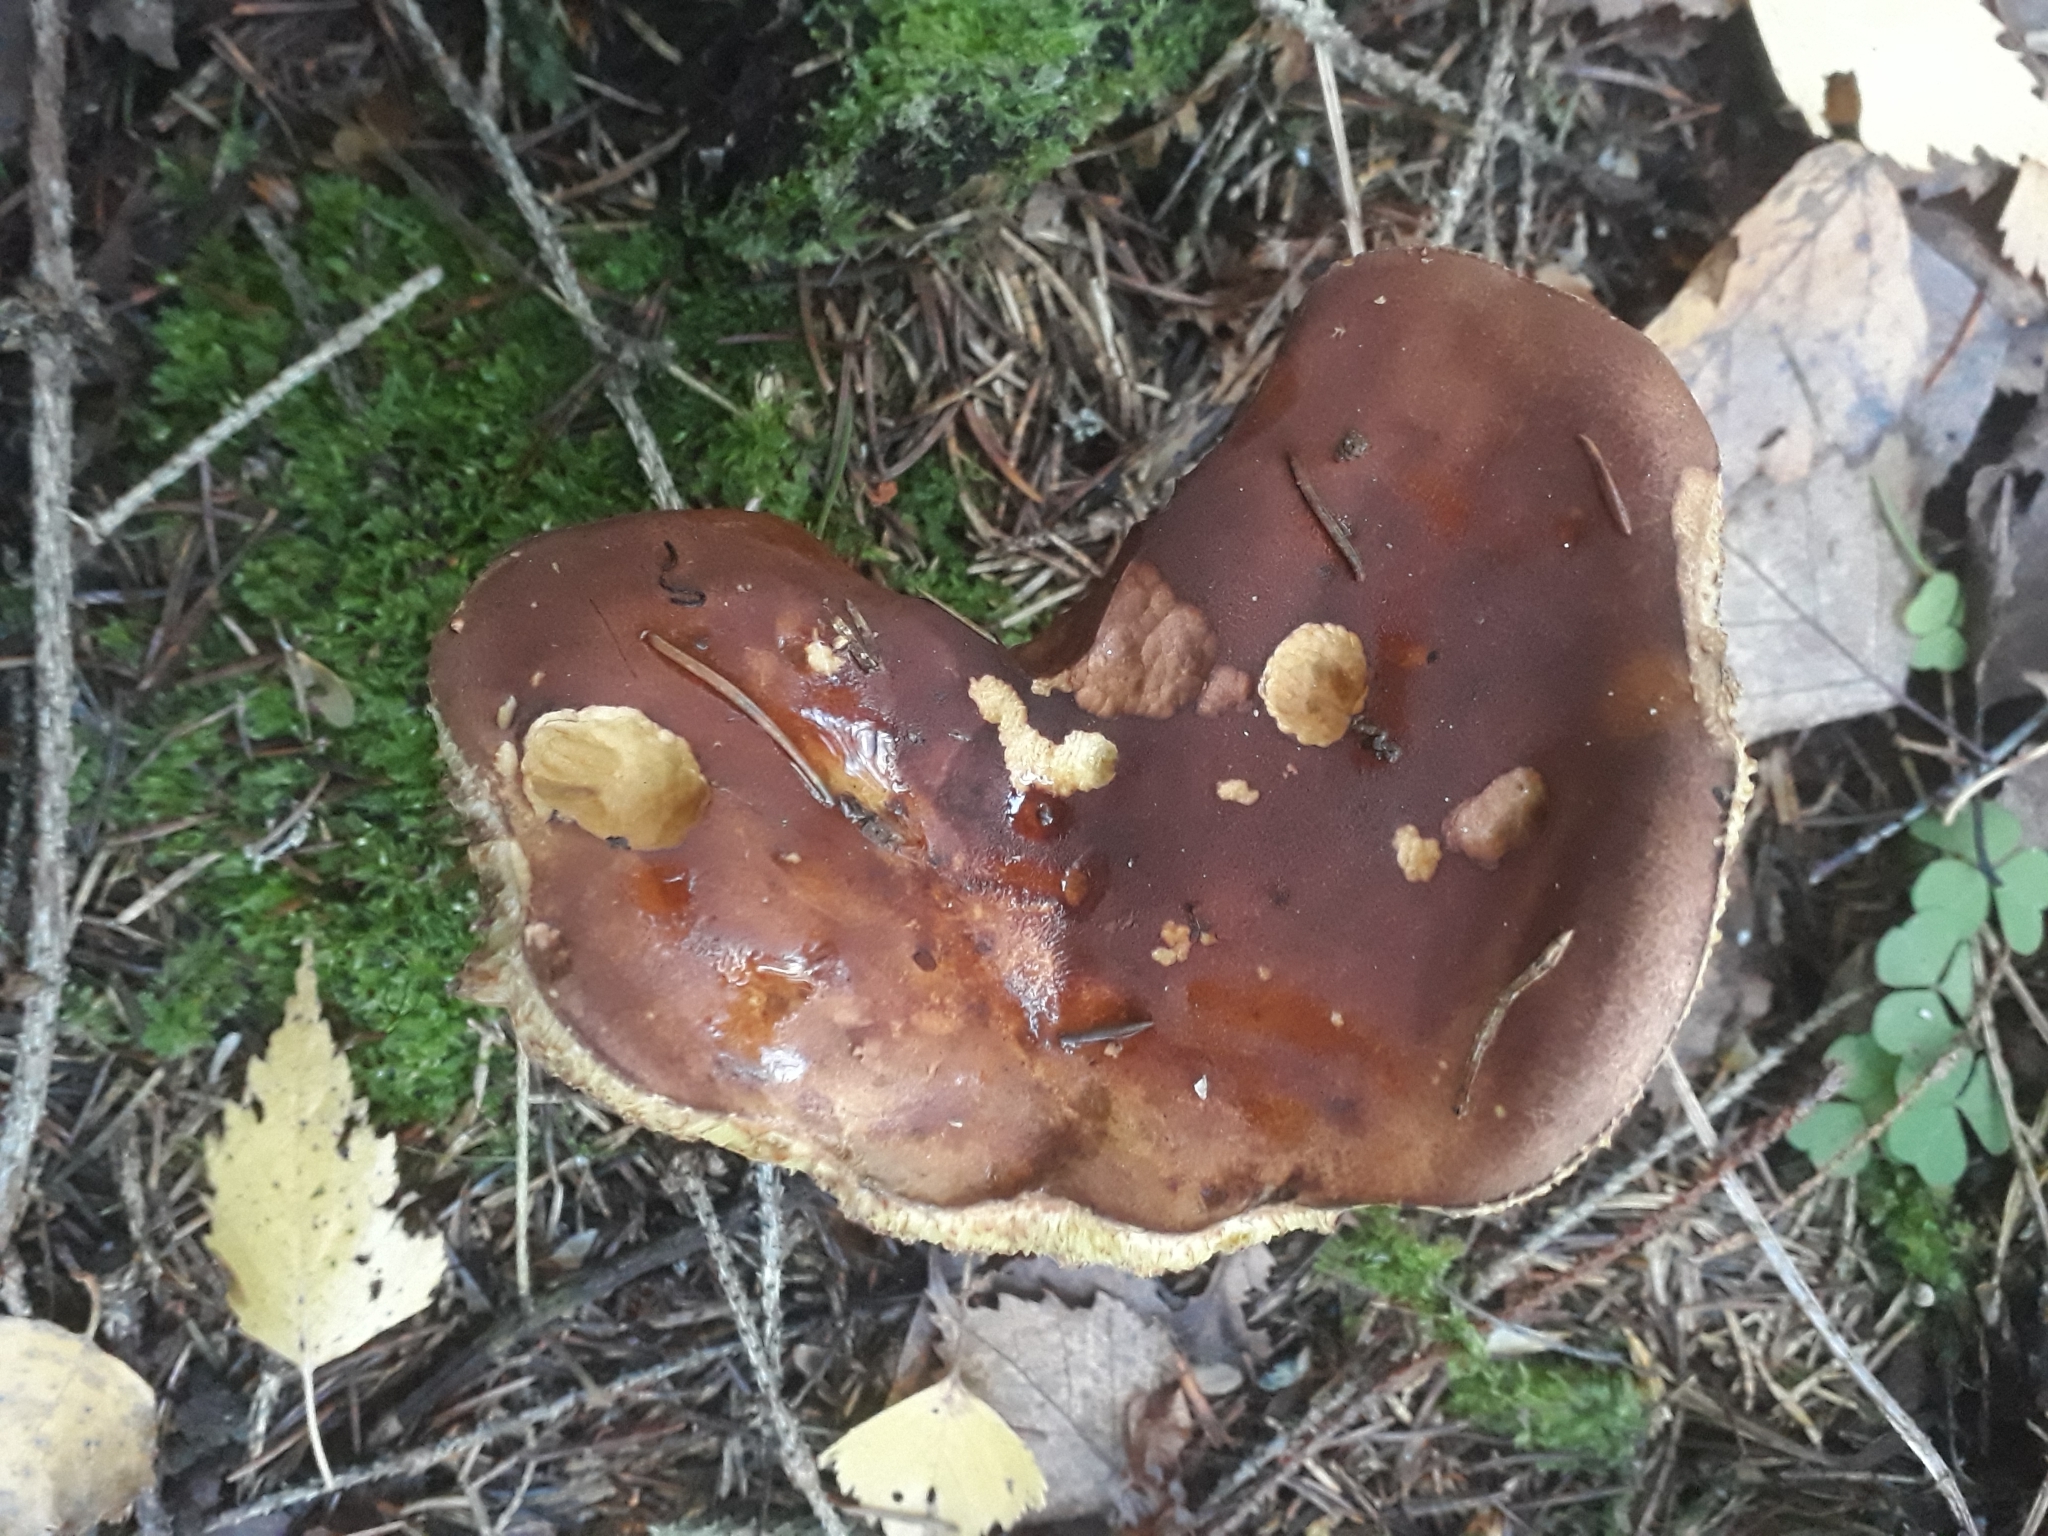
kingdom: Fungi
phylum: Basidiomycota
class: Agaricomycetes
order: Boletales
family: Boletaceae
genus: Imleria
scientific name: Imleria badia
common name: Bay bolete
